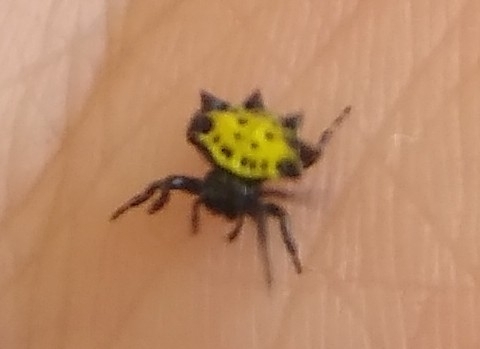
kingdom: Animalia
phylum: Arthropoda
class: Arachnida
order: Araneae
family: Araneidae
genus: Gasteracantha
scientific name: Gasteracantha cancriformis
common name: Orb weavers
